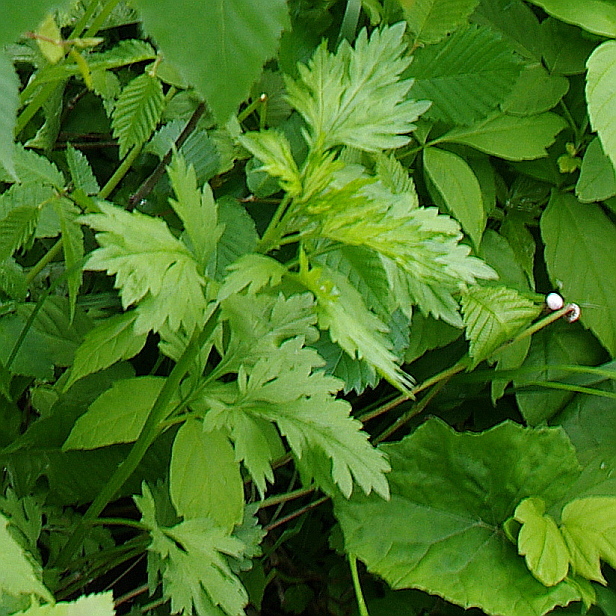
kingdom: Plantae
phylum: Tracheophyta
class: Magnoliopsida
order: Asterales
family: Asteraceae
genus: Artemisia
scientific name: Artemisia vulgaris
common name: Mugwort
